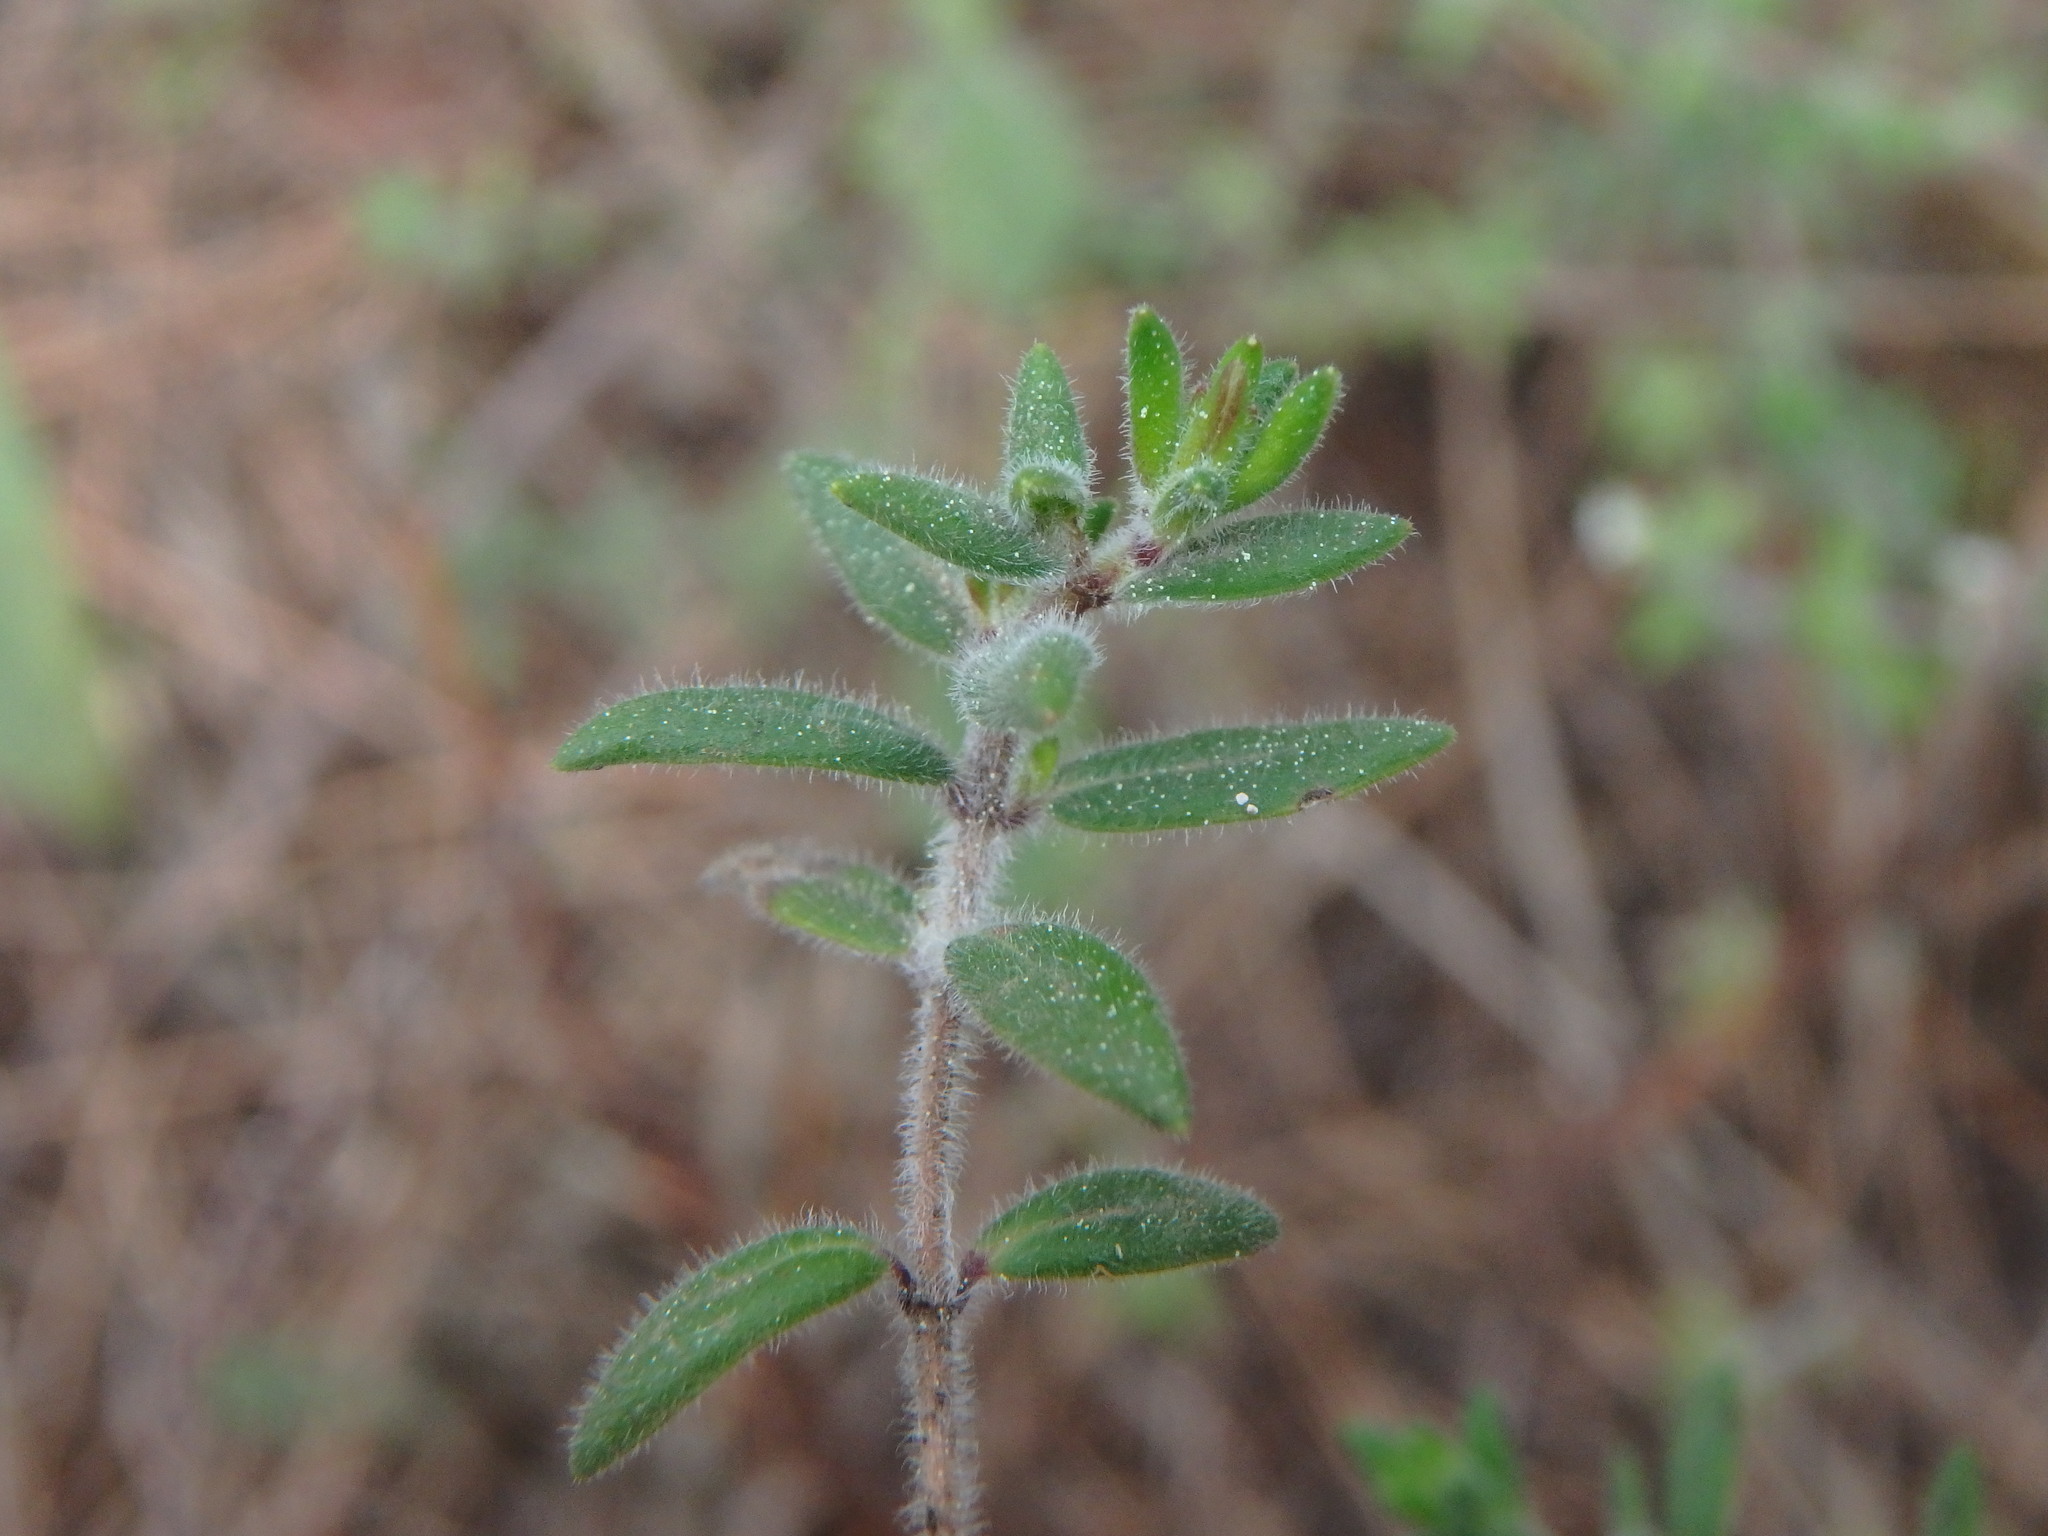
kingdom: Plantae
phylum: Tracheophyta
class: Magnoliopsida
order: Lamiales
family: Lamiaceae
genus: Micromeria
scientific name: Micromeria ericifolia
